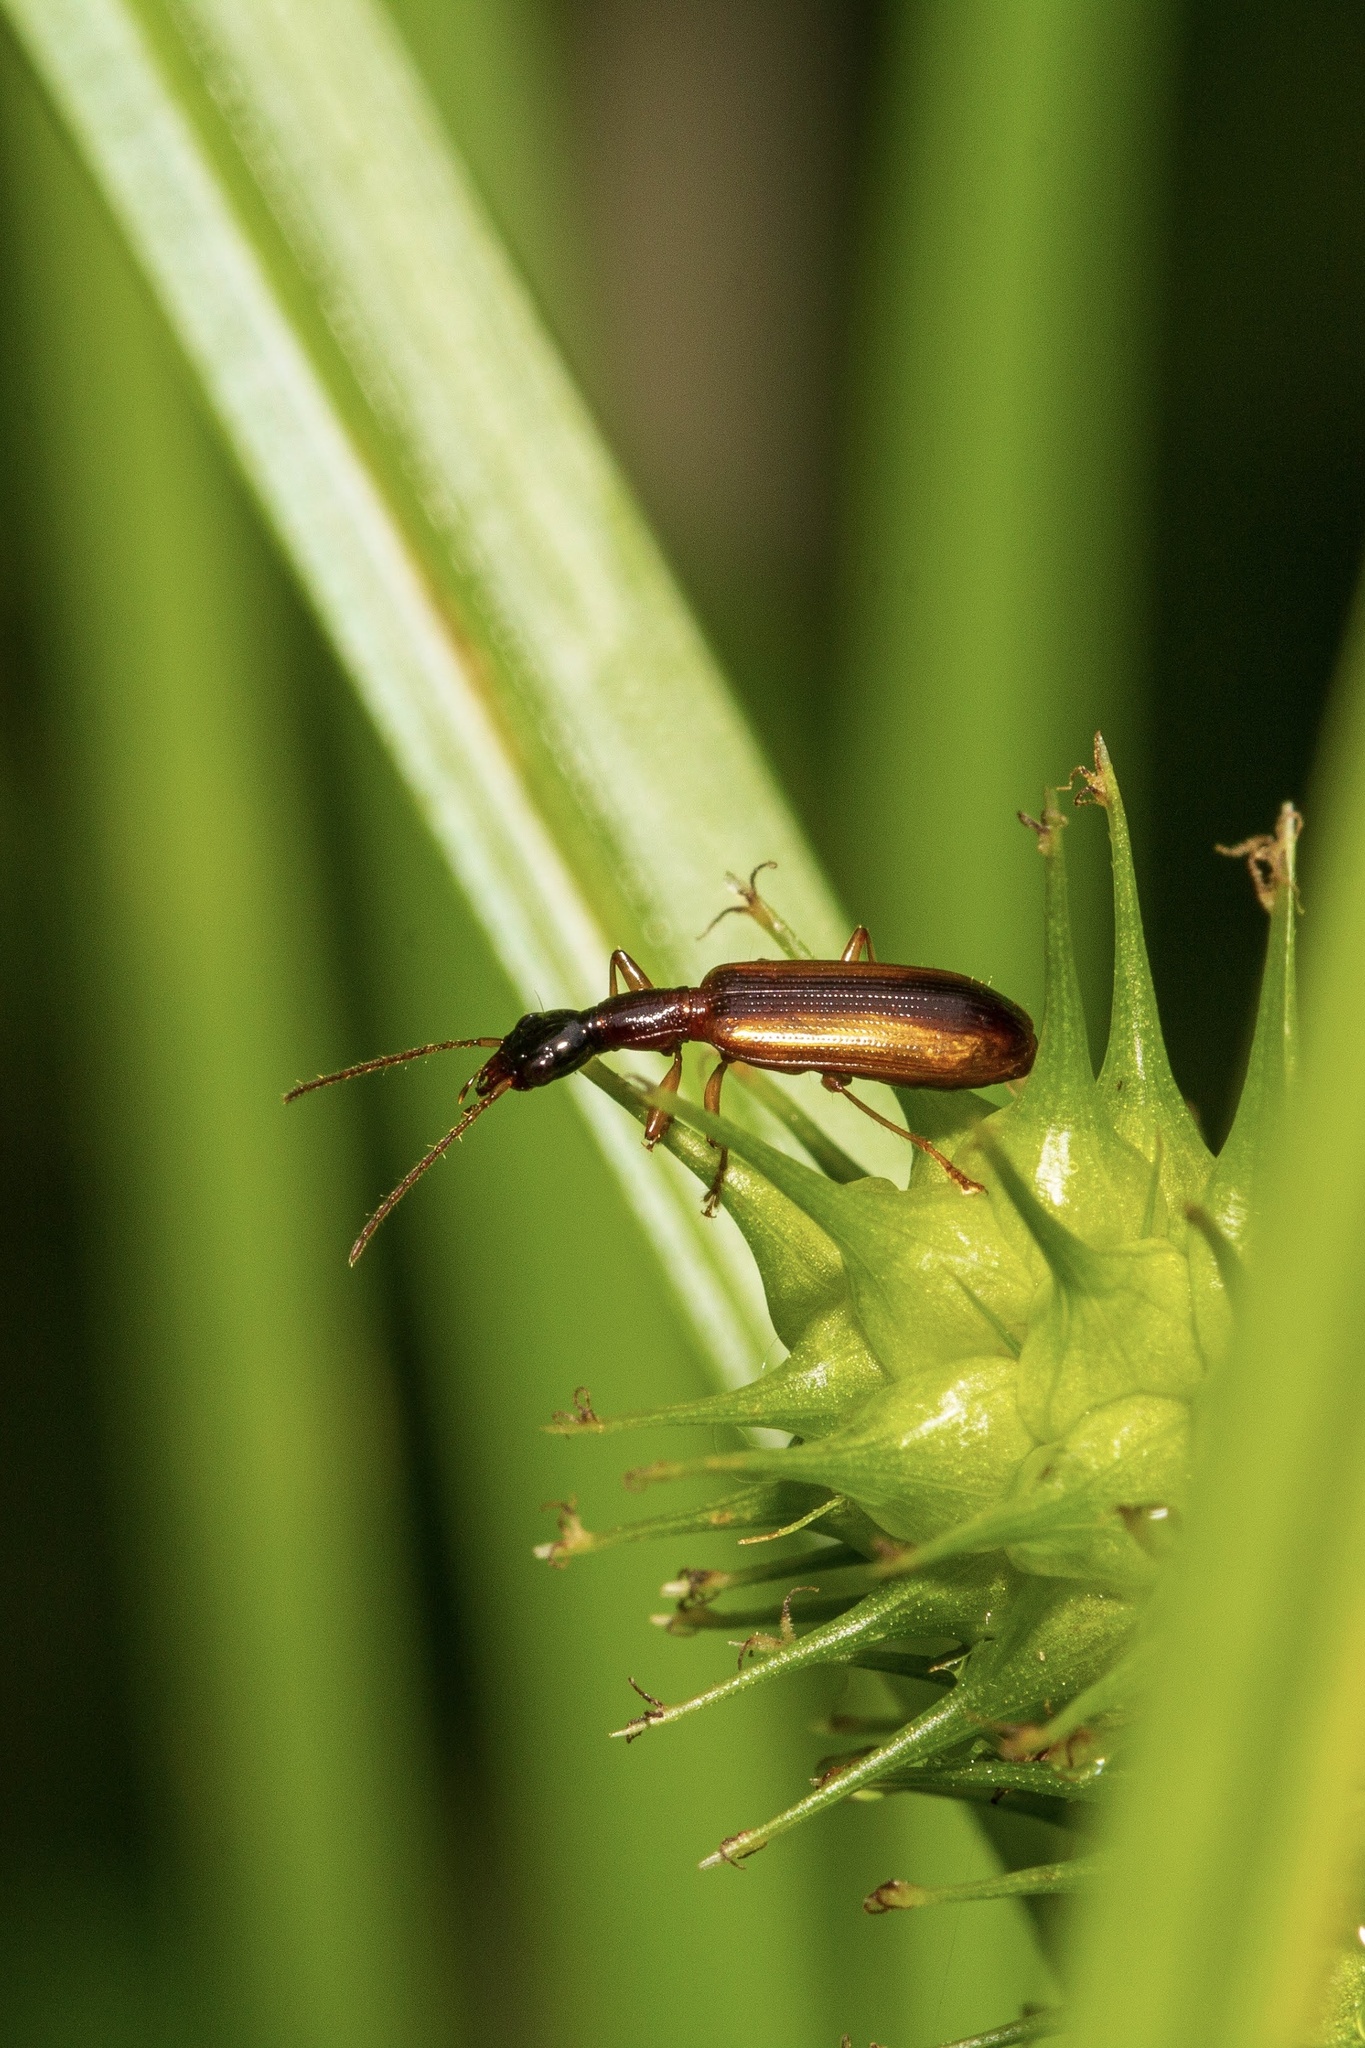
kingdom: Animalia
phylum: Arthropoda
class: Insecta
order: Coleoptera
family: Carabidae
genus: Leptotrachelus
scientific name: Leptotrachelus dorsalis
